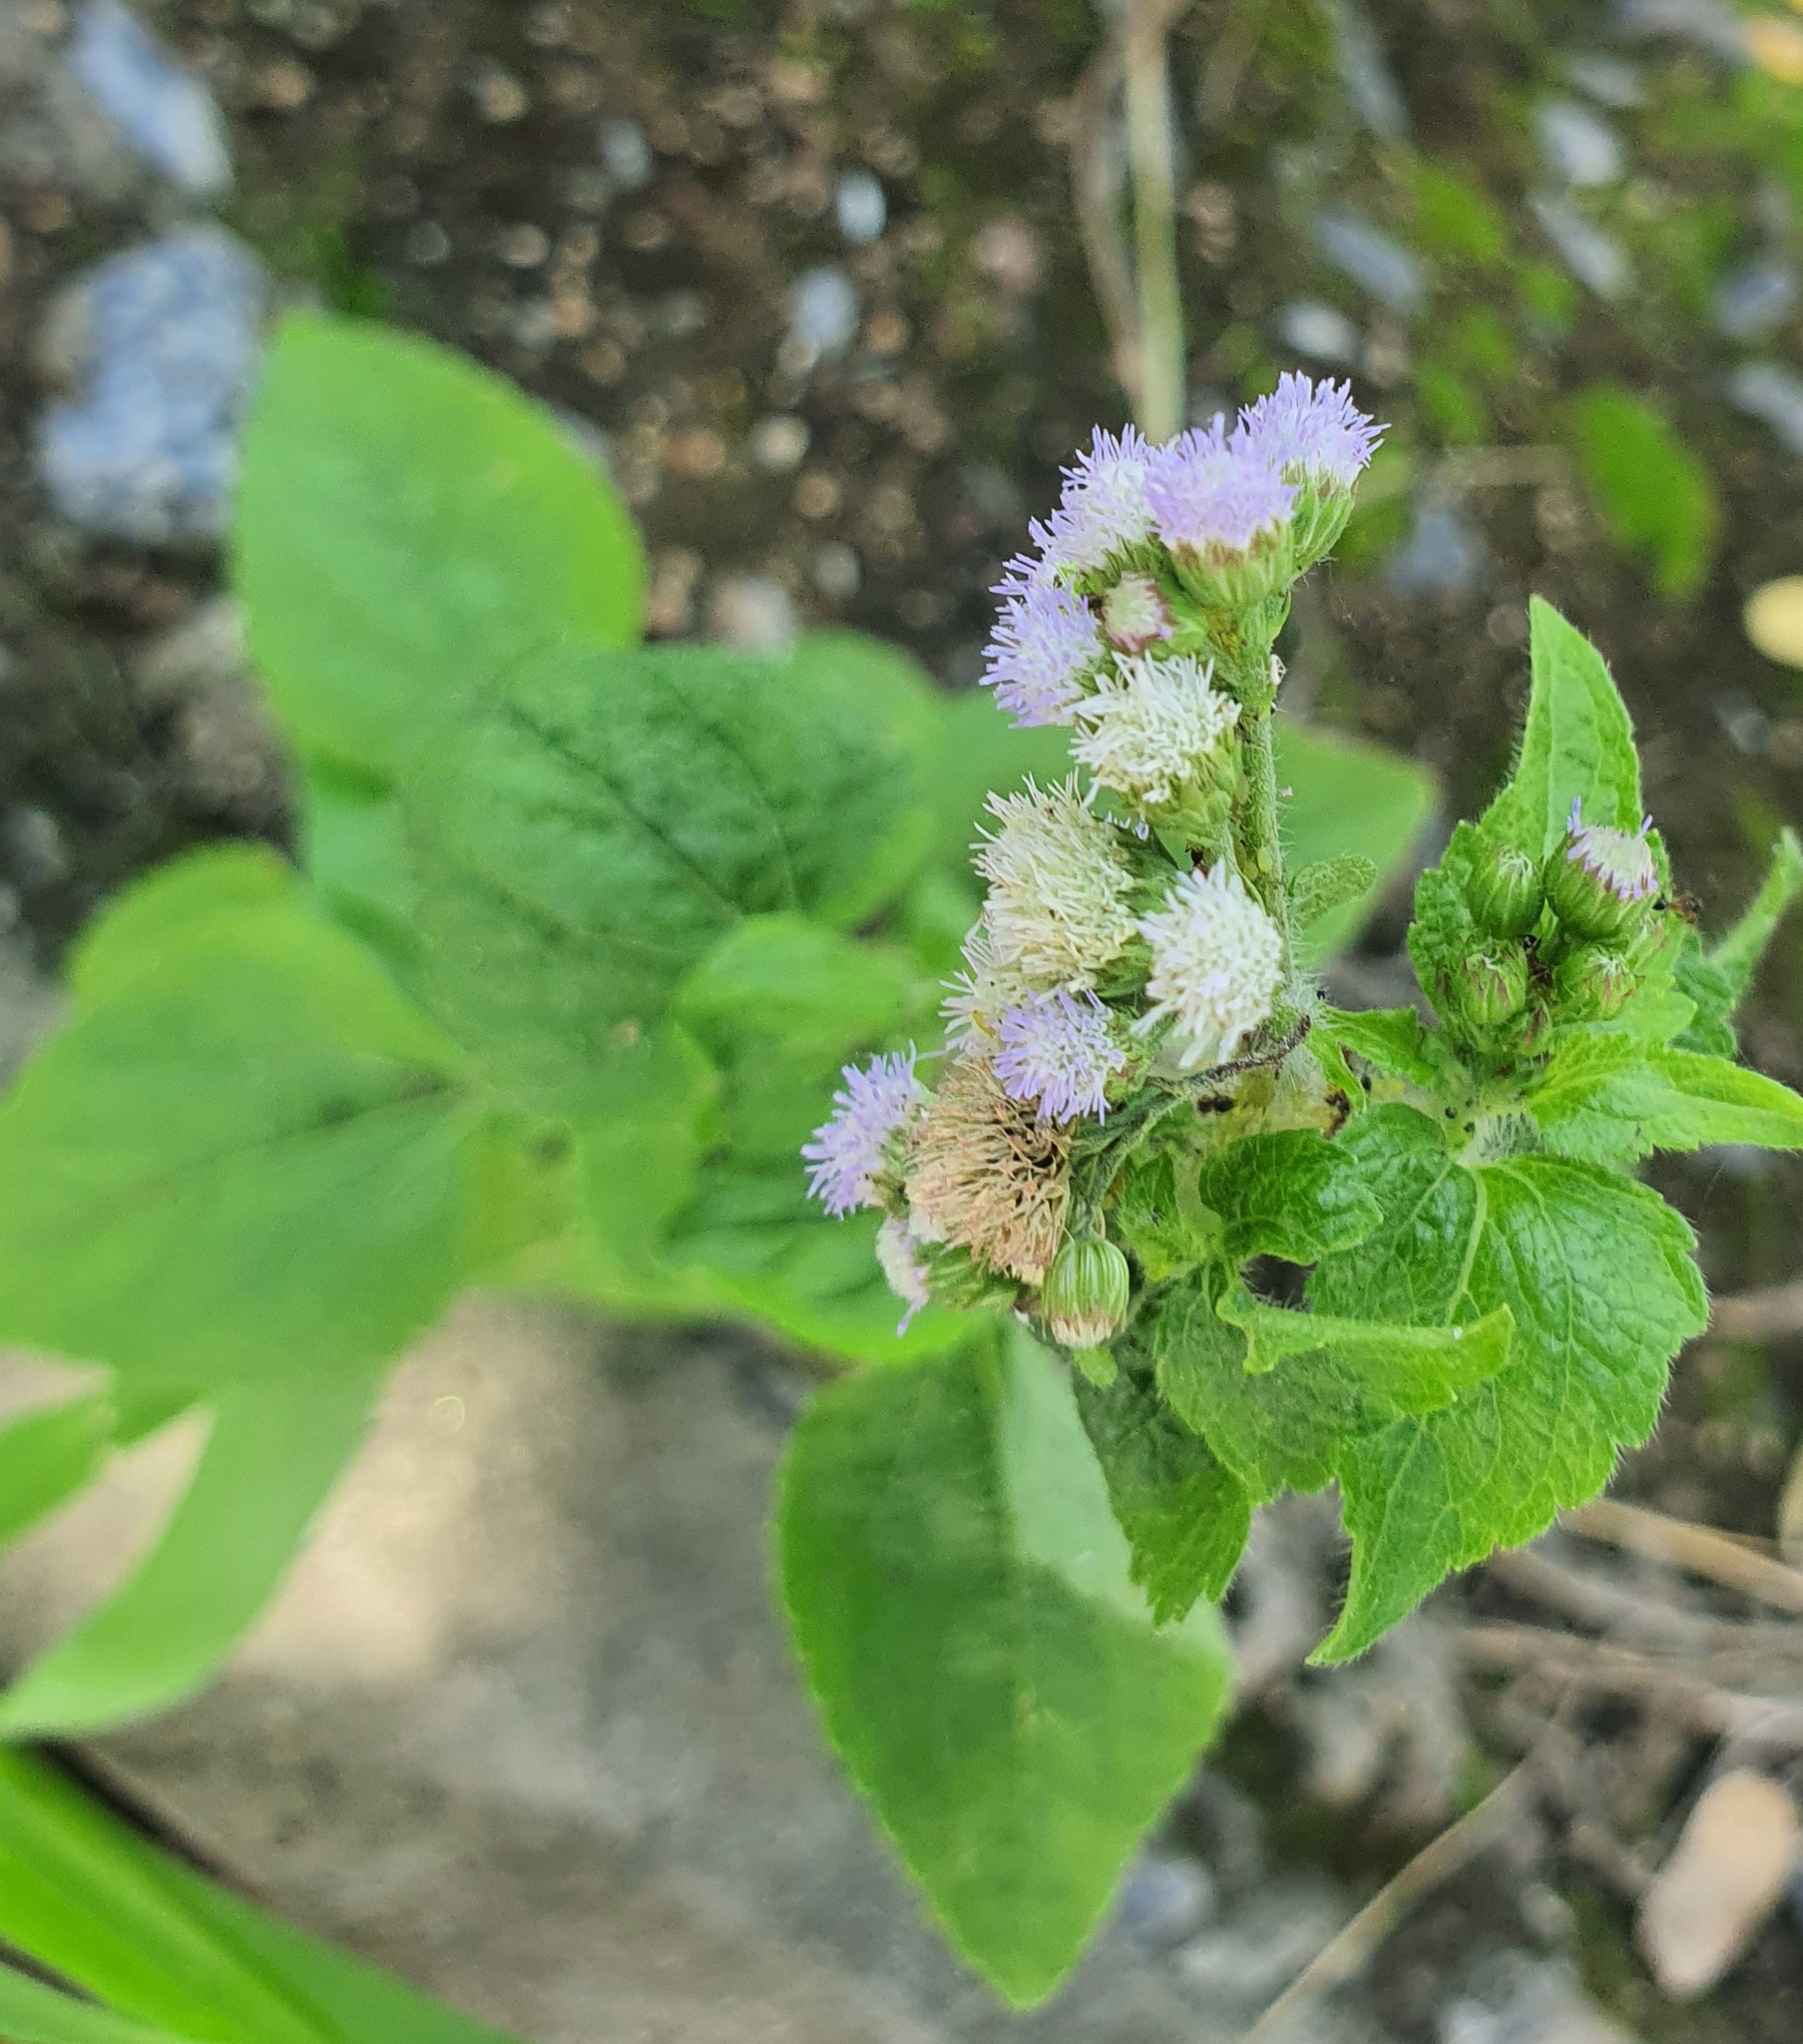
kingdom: Plantae
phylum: Tracheophyta
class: Magnoliopsida
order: Asterales
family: Asteraceae
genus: Ageratum
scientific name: Ageratum conyzoides
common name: Tropical whiteweed
